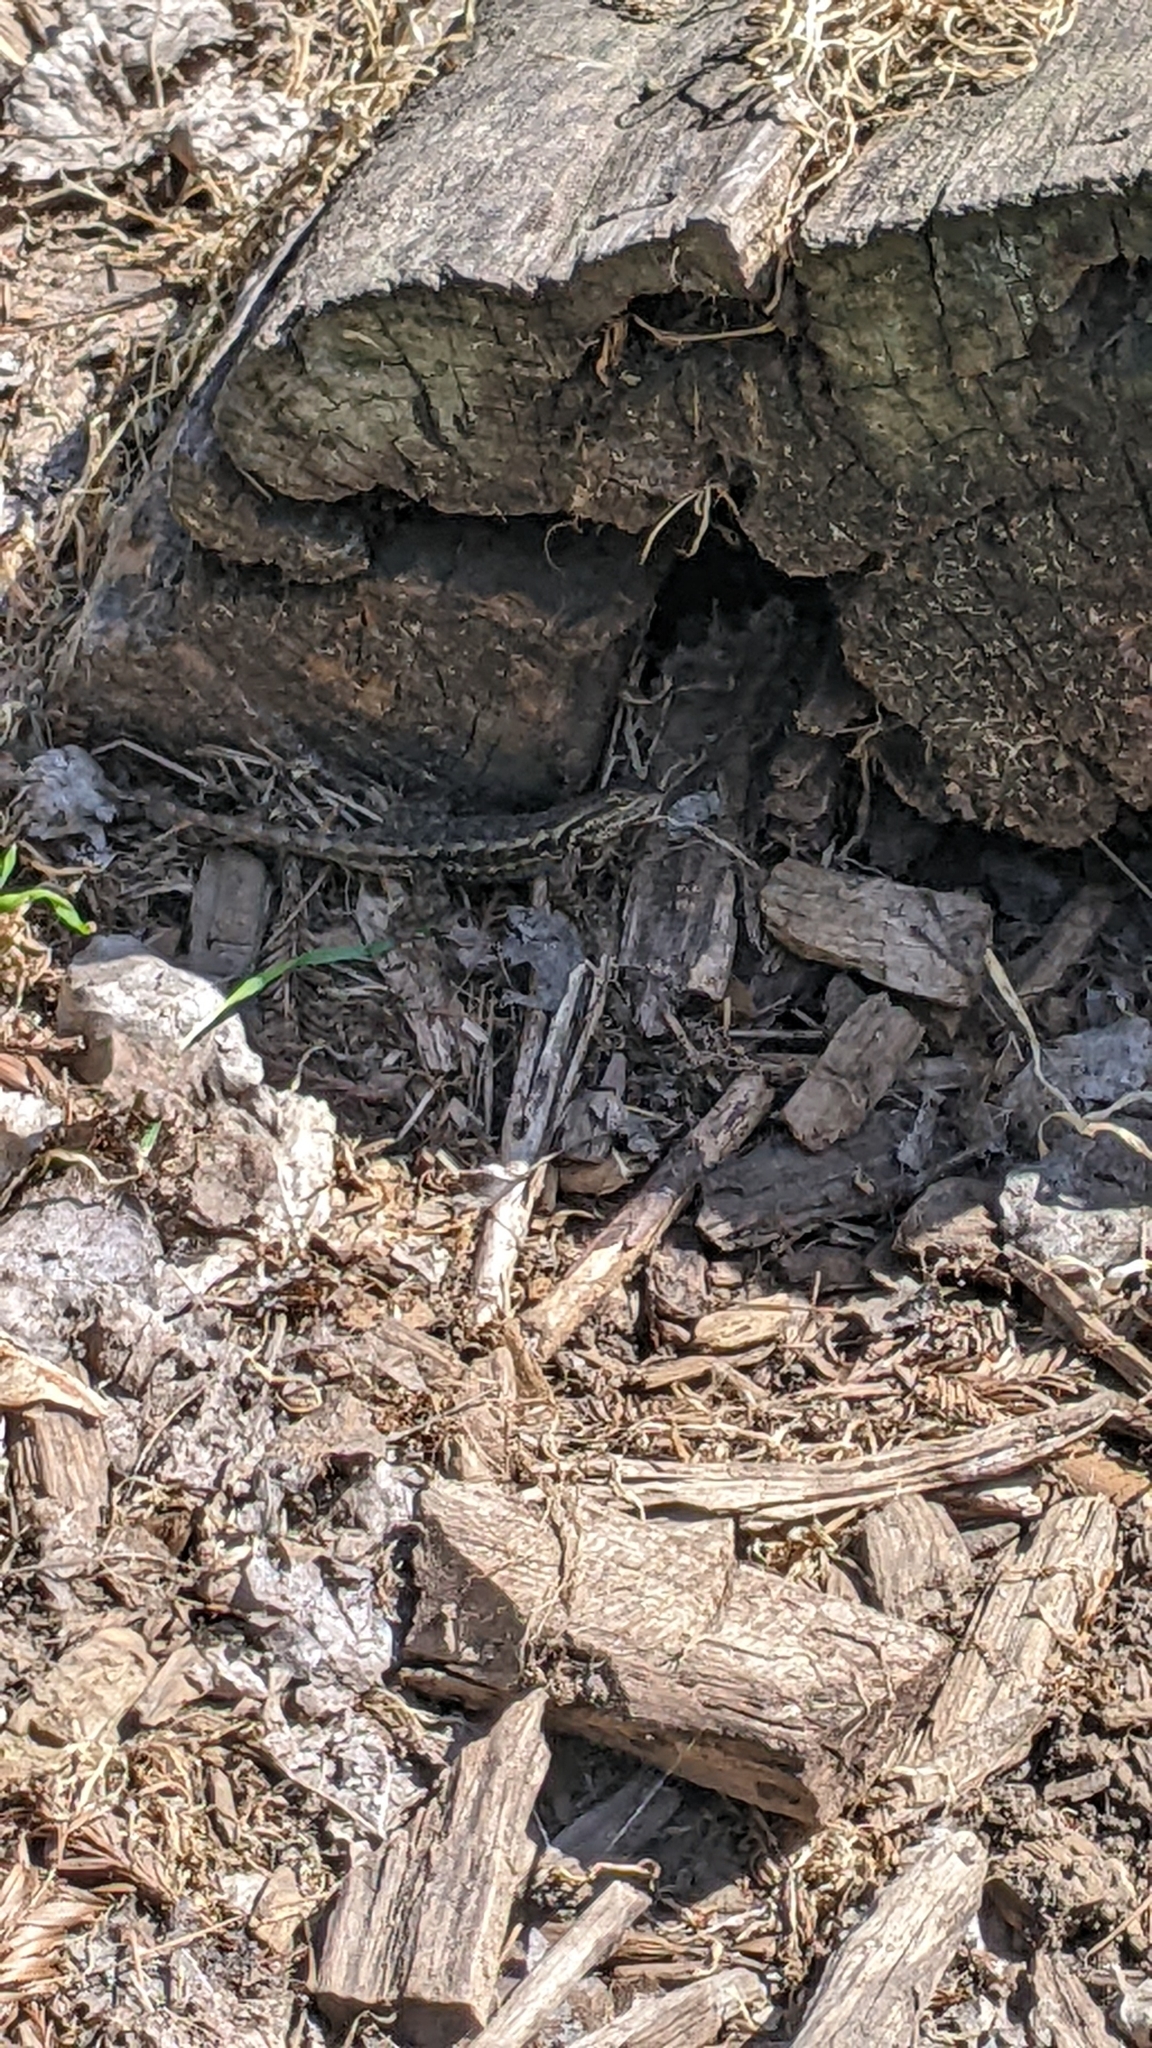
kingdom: Animalia
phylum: Chordata
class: Squamata
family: Phrynosomatidae
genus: Sceloporus
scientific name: Sceloporus occidentalis
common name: Western fence lizard
